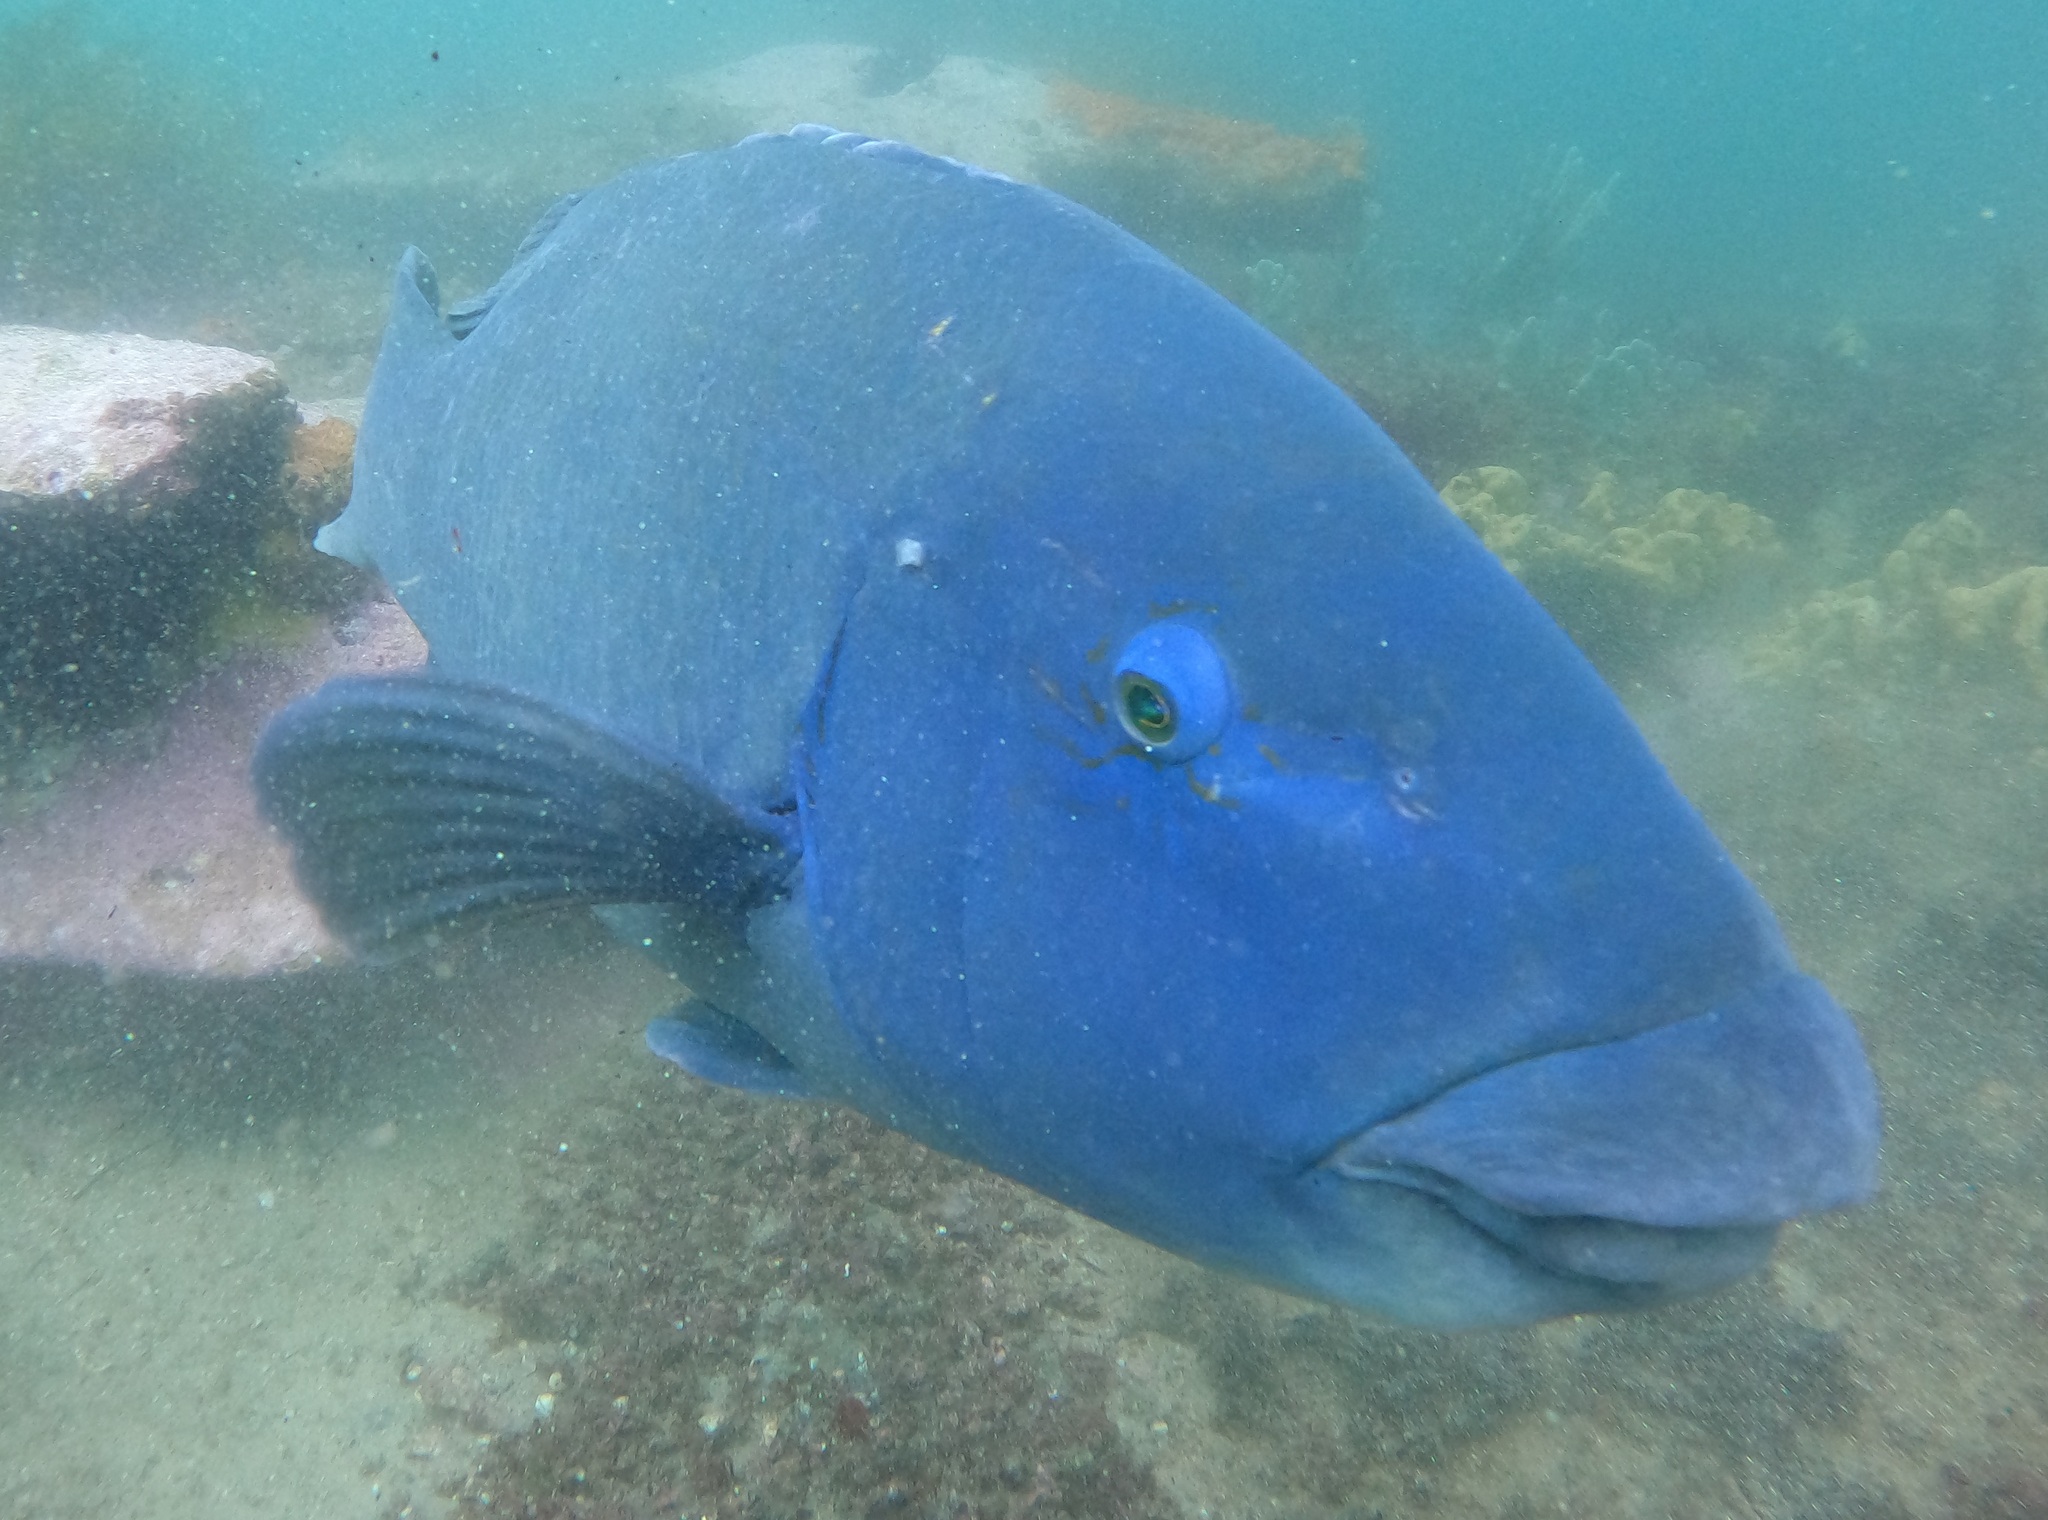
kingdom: Animalia
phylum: Chordata
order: Perciformes
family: Labridae
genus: Achoerodus
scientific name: Achoerodus viridis
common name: Brown groper
